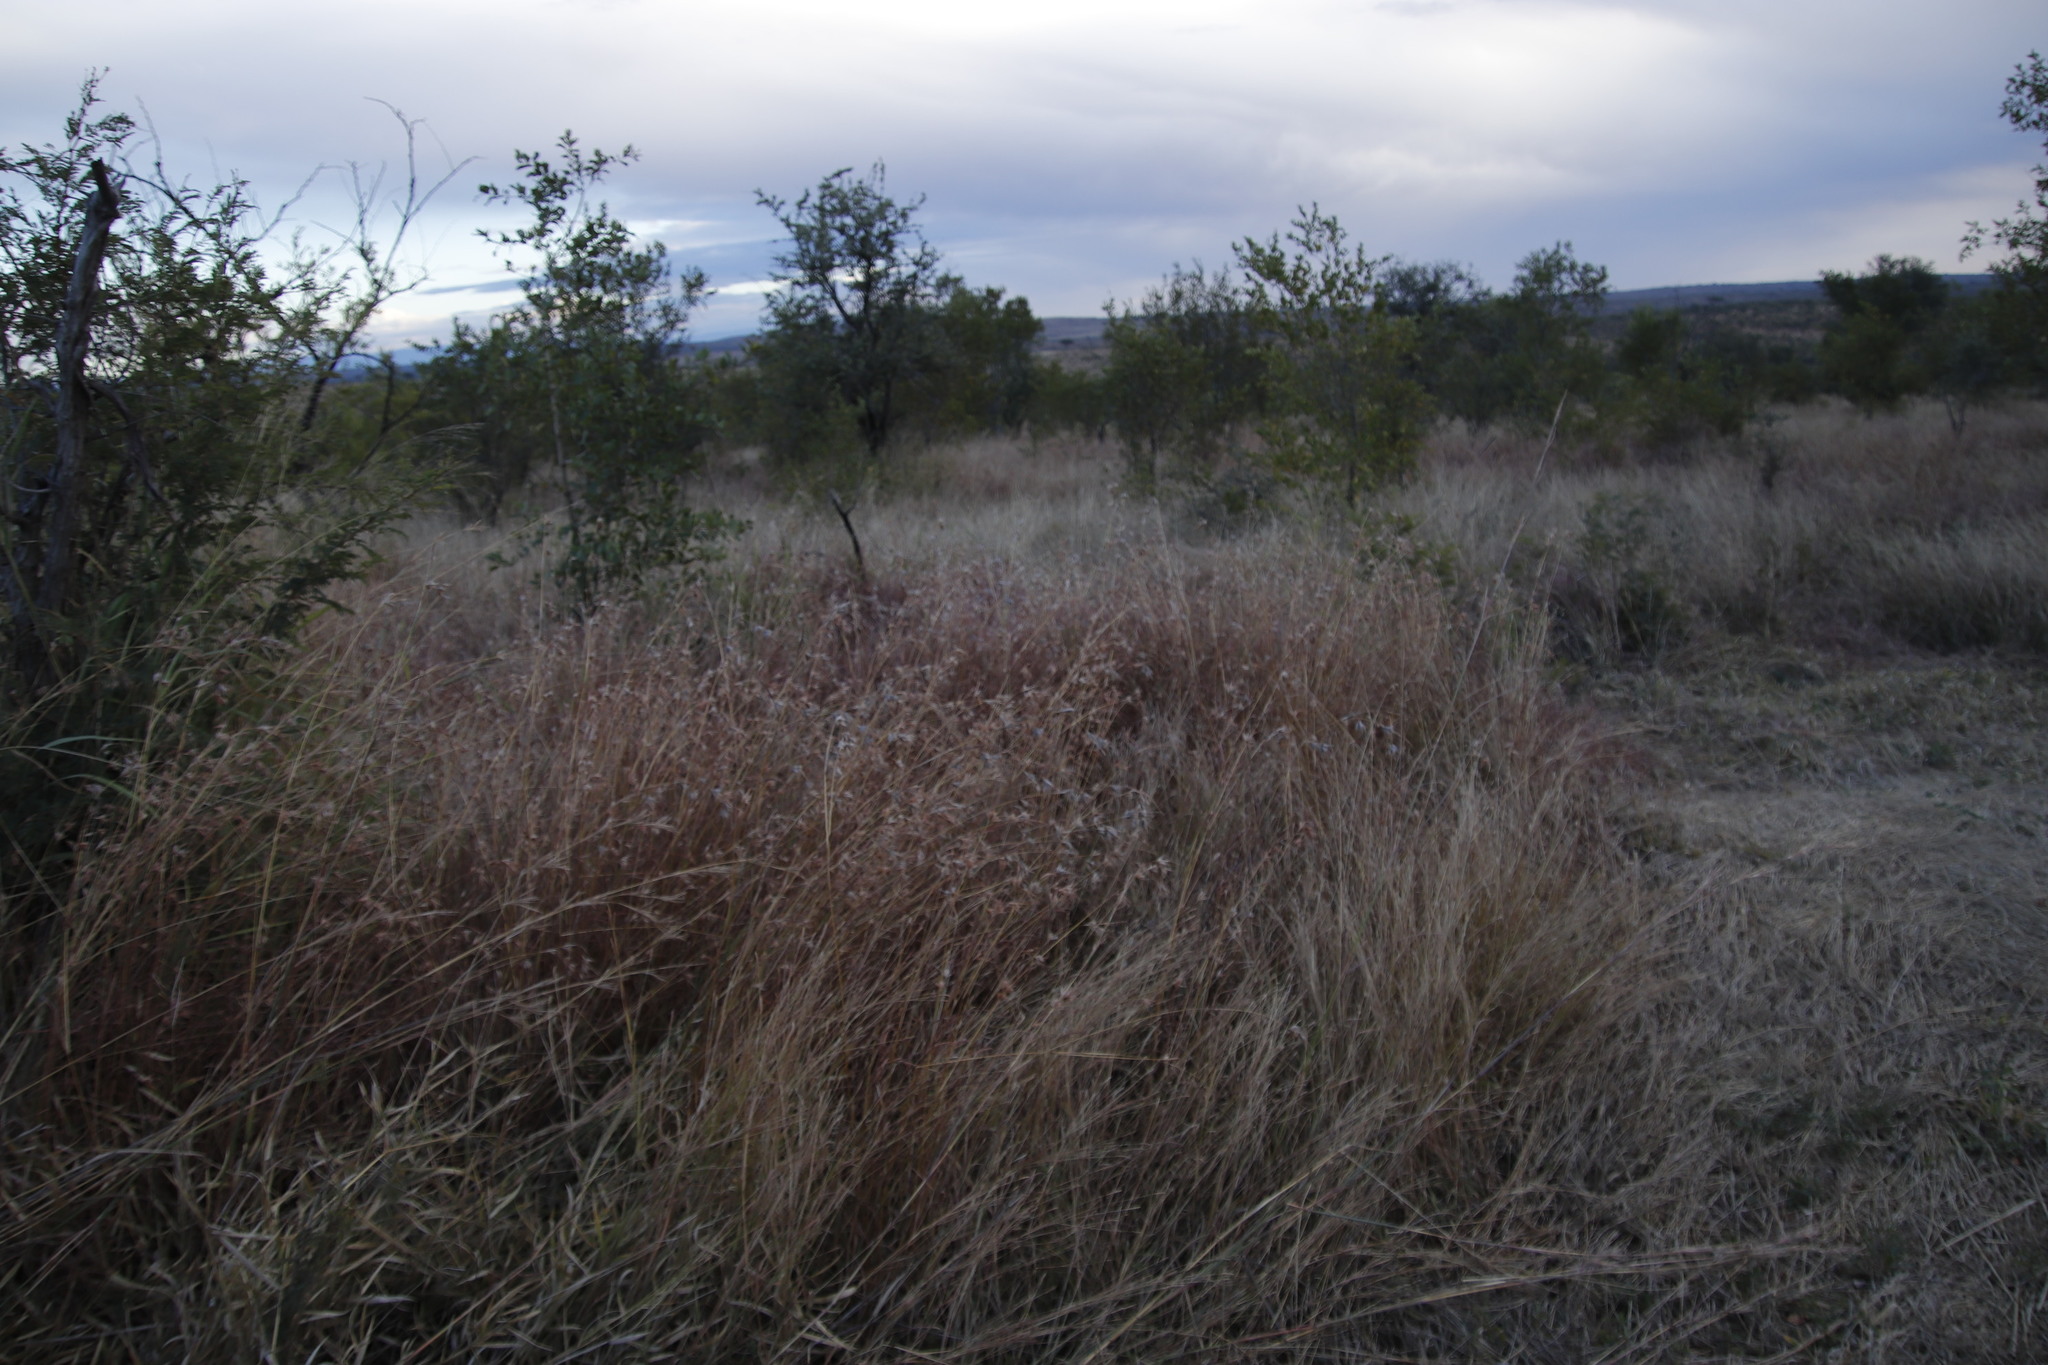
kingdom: Plantae
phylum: Tracheophyta
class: Liliopsida
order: Poales
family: Poaceae
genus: Themeda
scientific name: Themeda triandra
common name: Kangaroo grass
